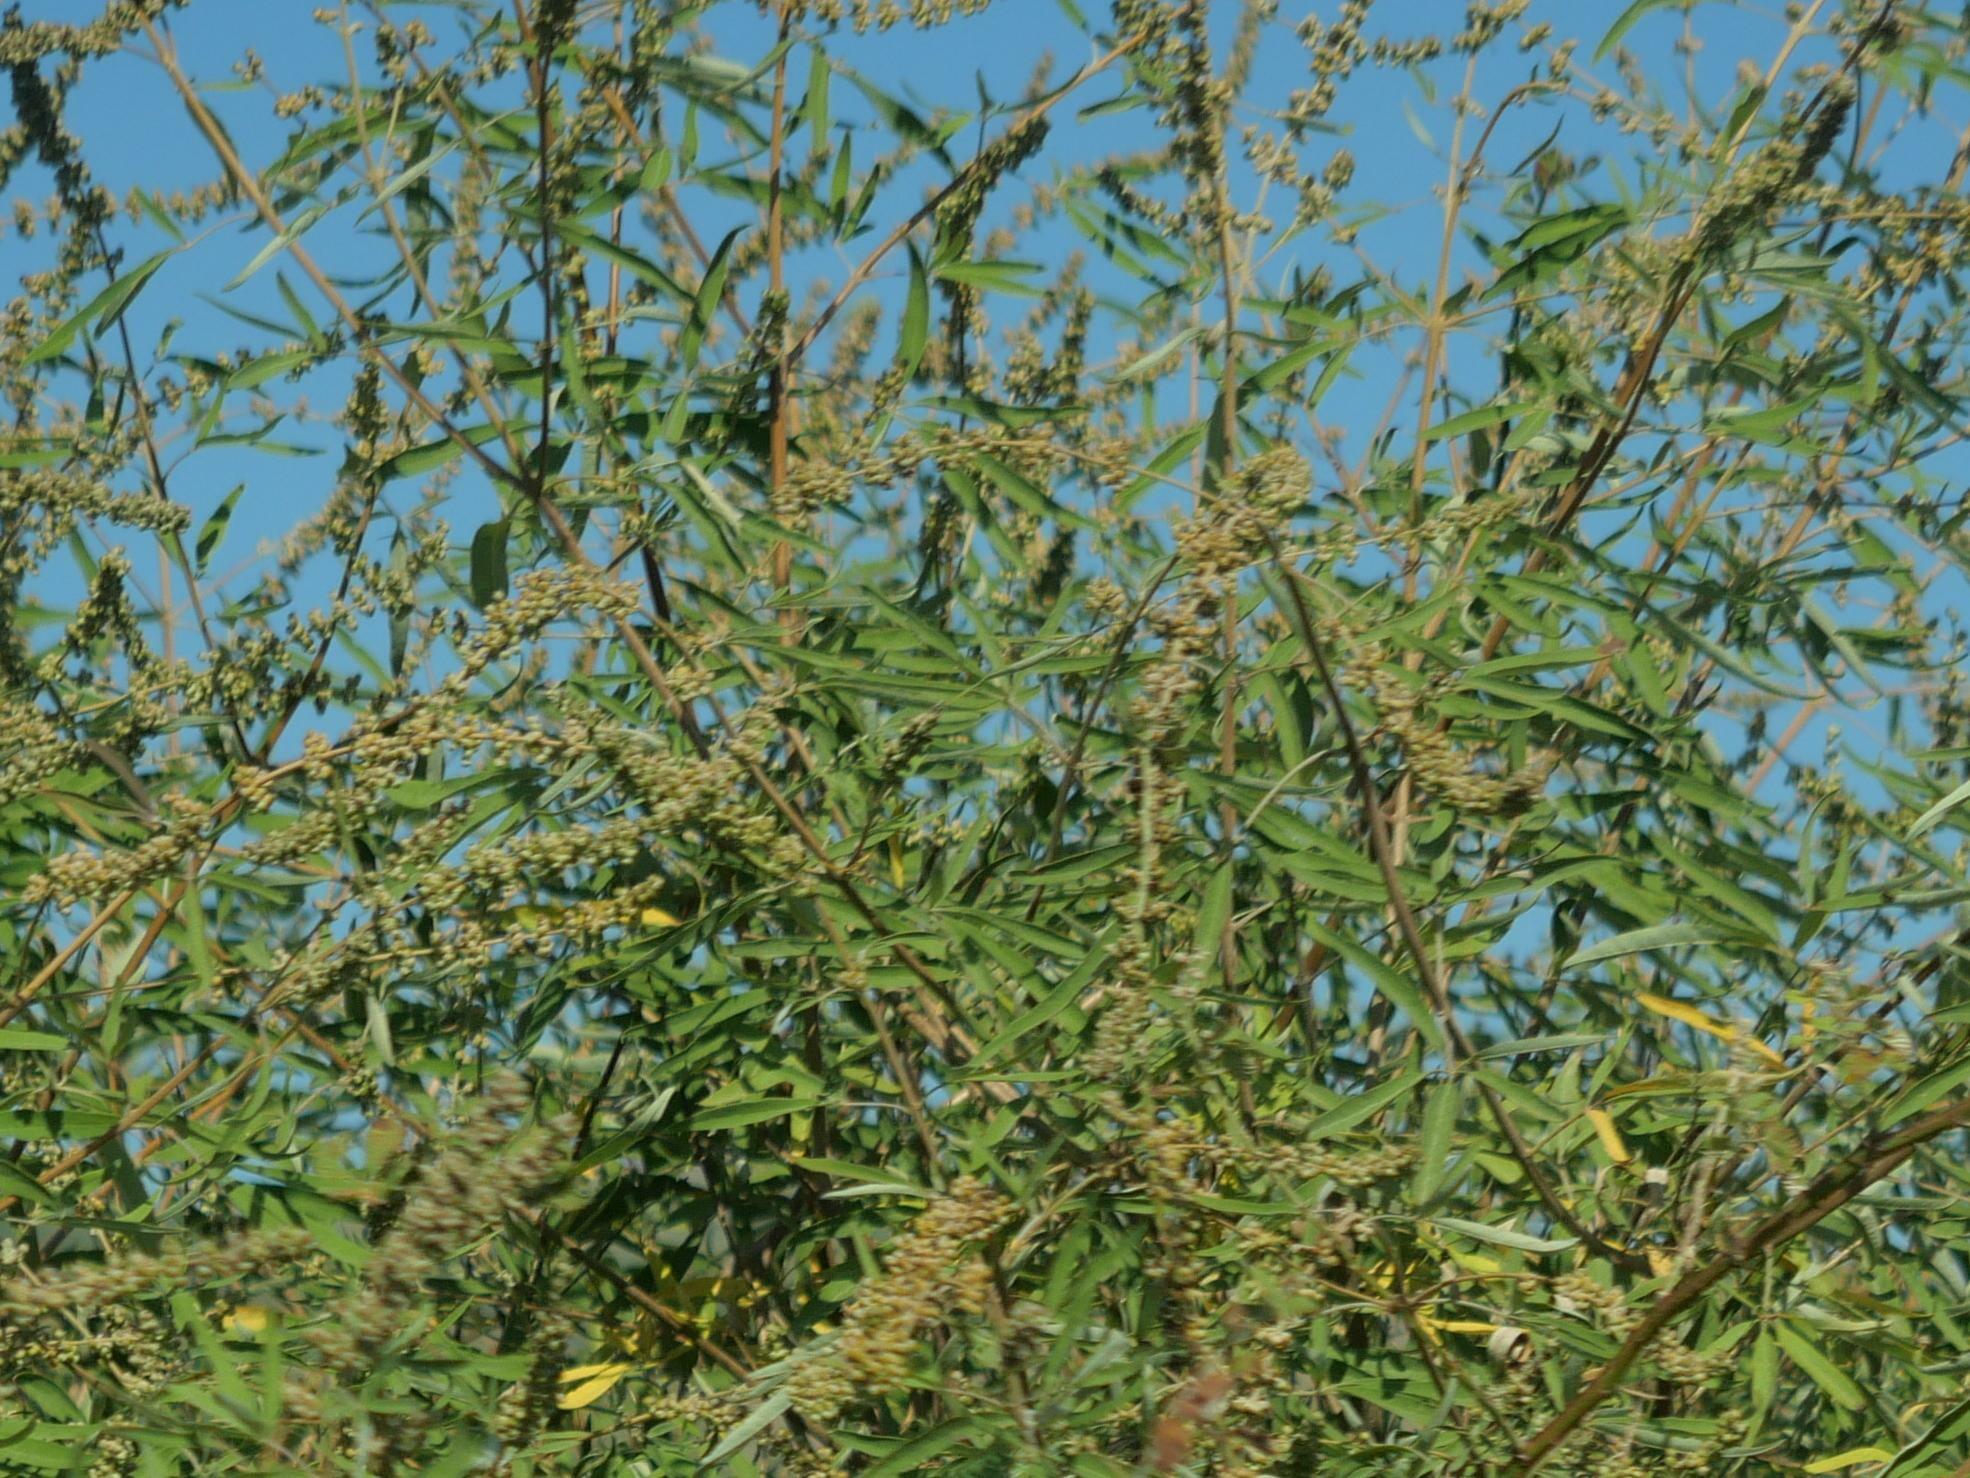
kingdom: Plantae
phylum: Tracheophyta
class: Magnoliopsida
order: Lamiales
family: Lamiaceae
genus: Vitex
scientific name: Vitex agnus-castus
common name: Chasteberry
